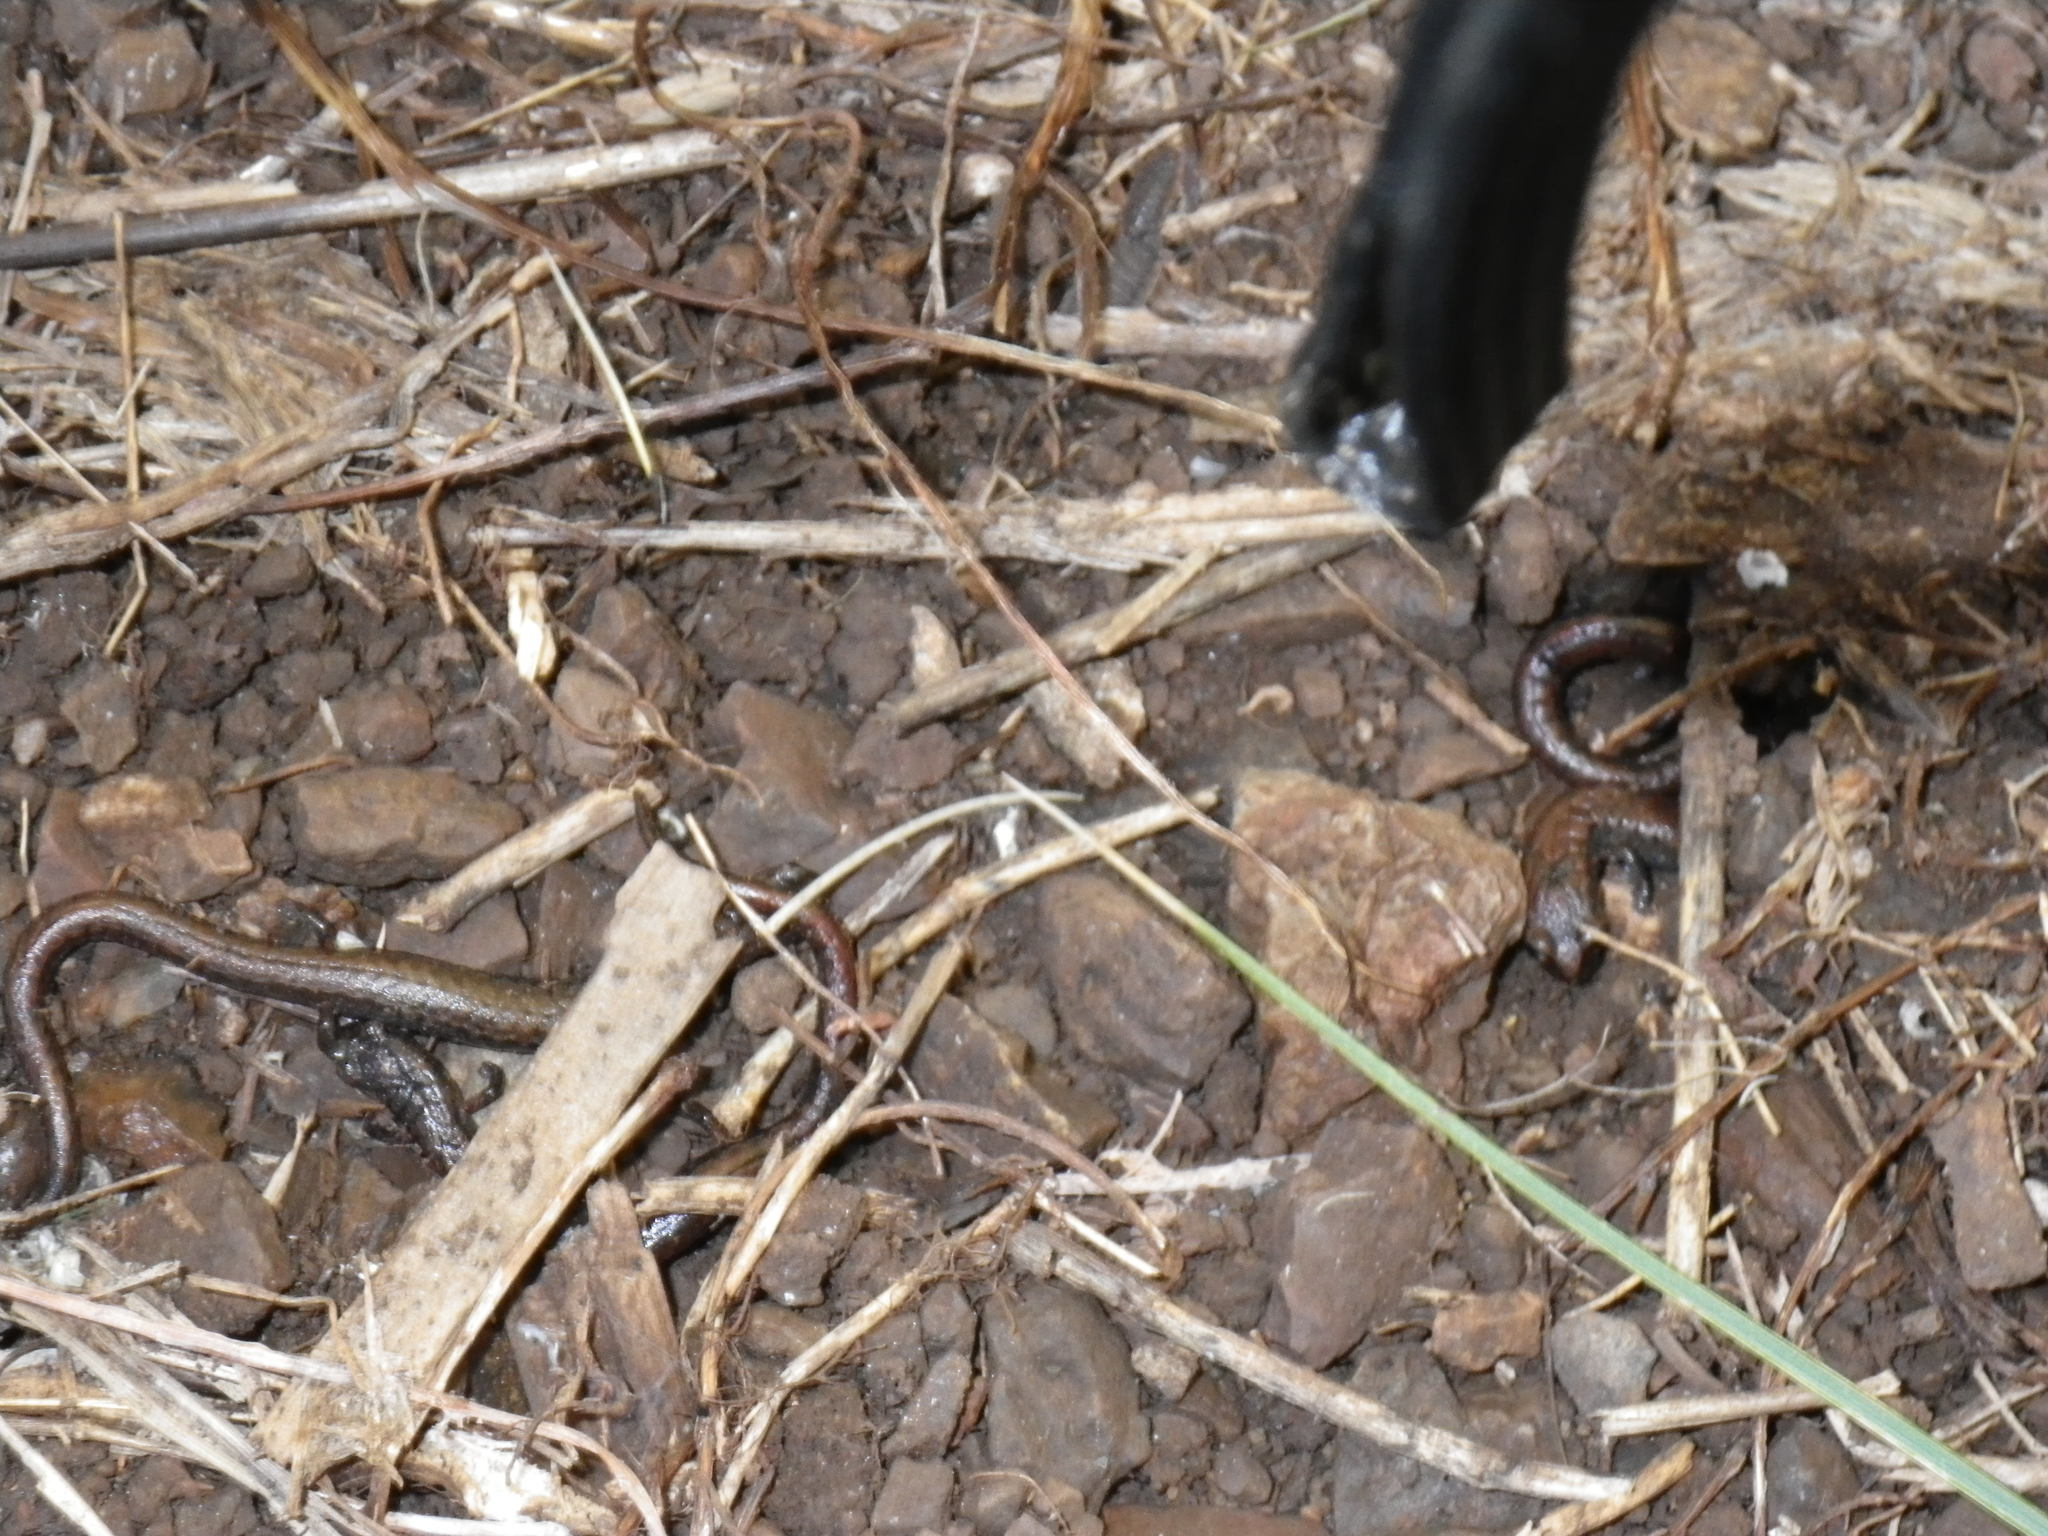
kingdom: Animalia
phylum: Chordata
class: Amphibia
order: Caudata
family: Plethodontidae
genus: Batrachoseps
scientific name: Batrachoseps attenuatus
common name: California slender salamander
